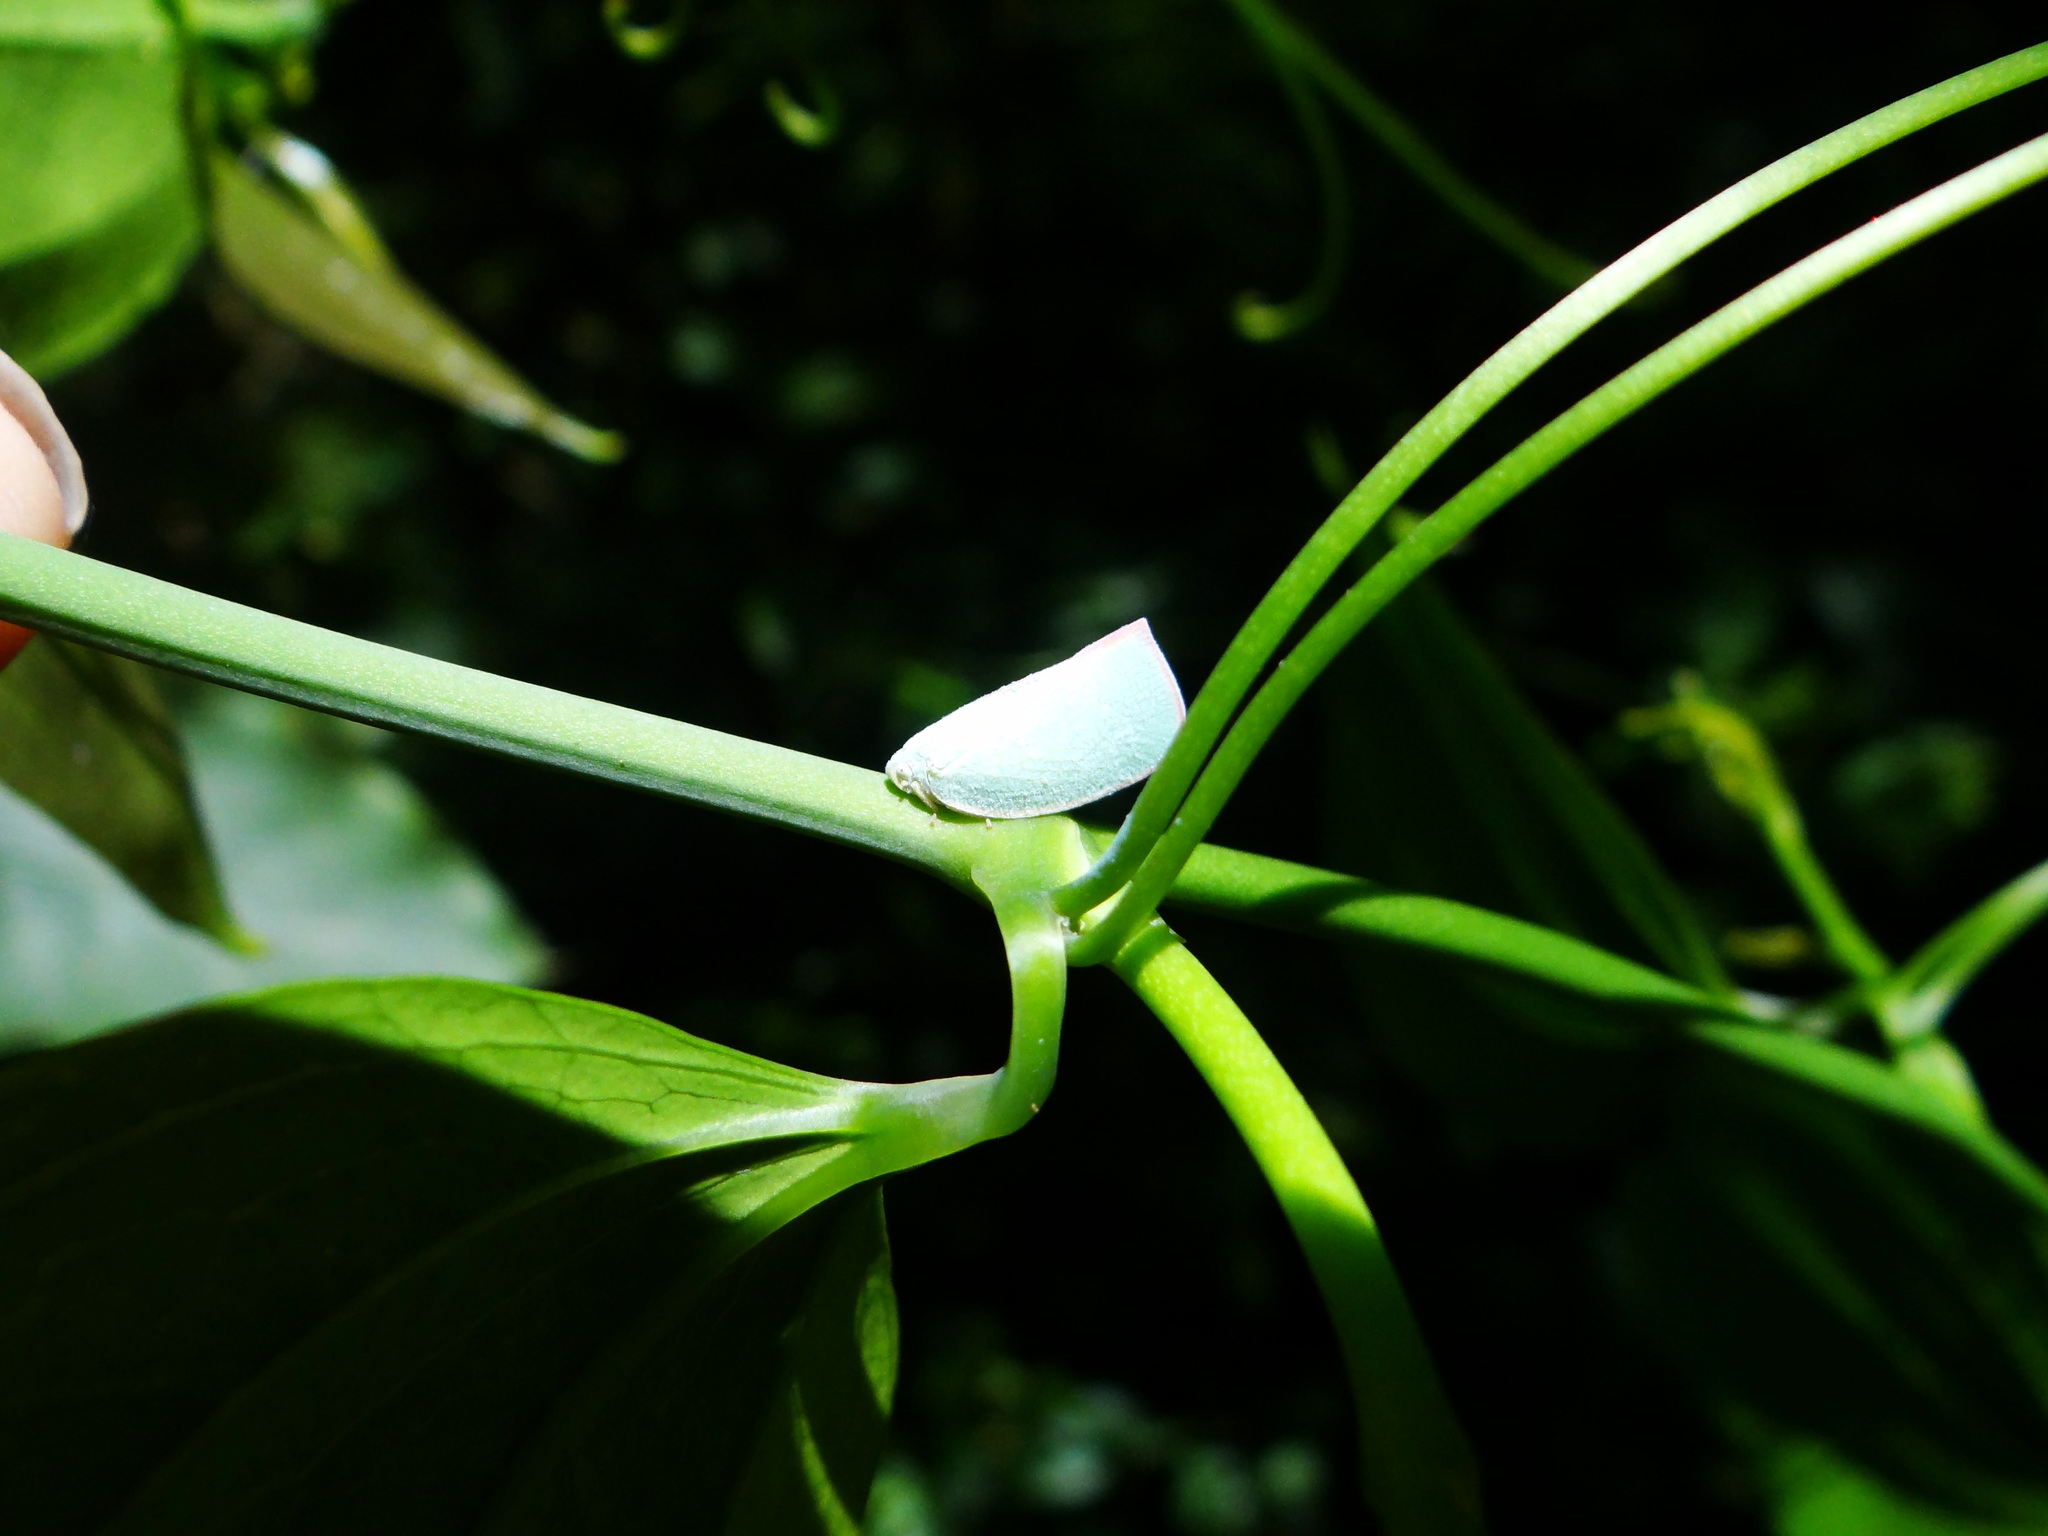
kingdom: Animalia
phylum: Arthropoda
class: Insecta
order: Hemiptera
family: Flatidae
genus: Geisha
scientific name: Geisha distinctissima
